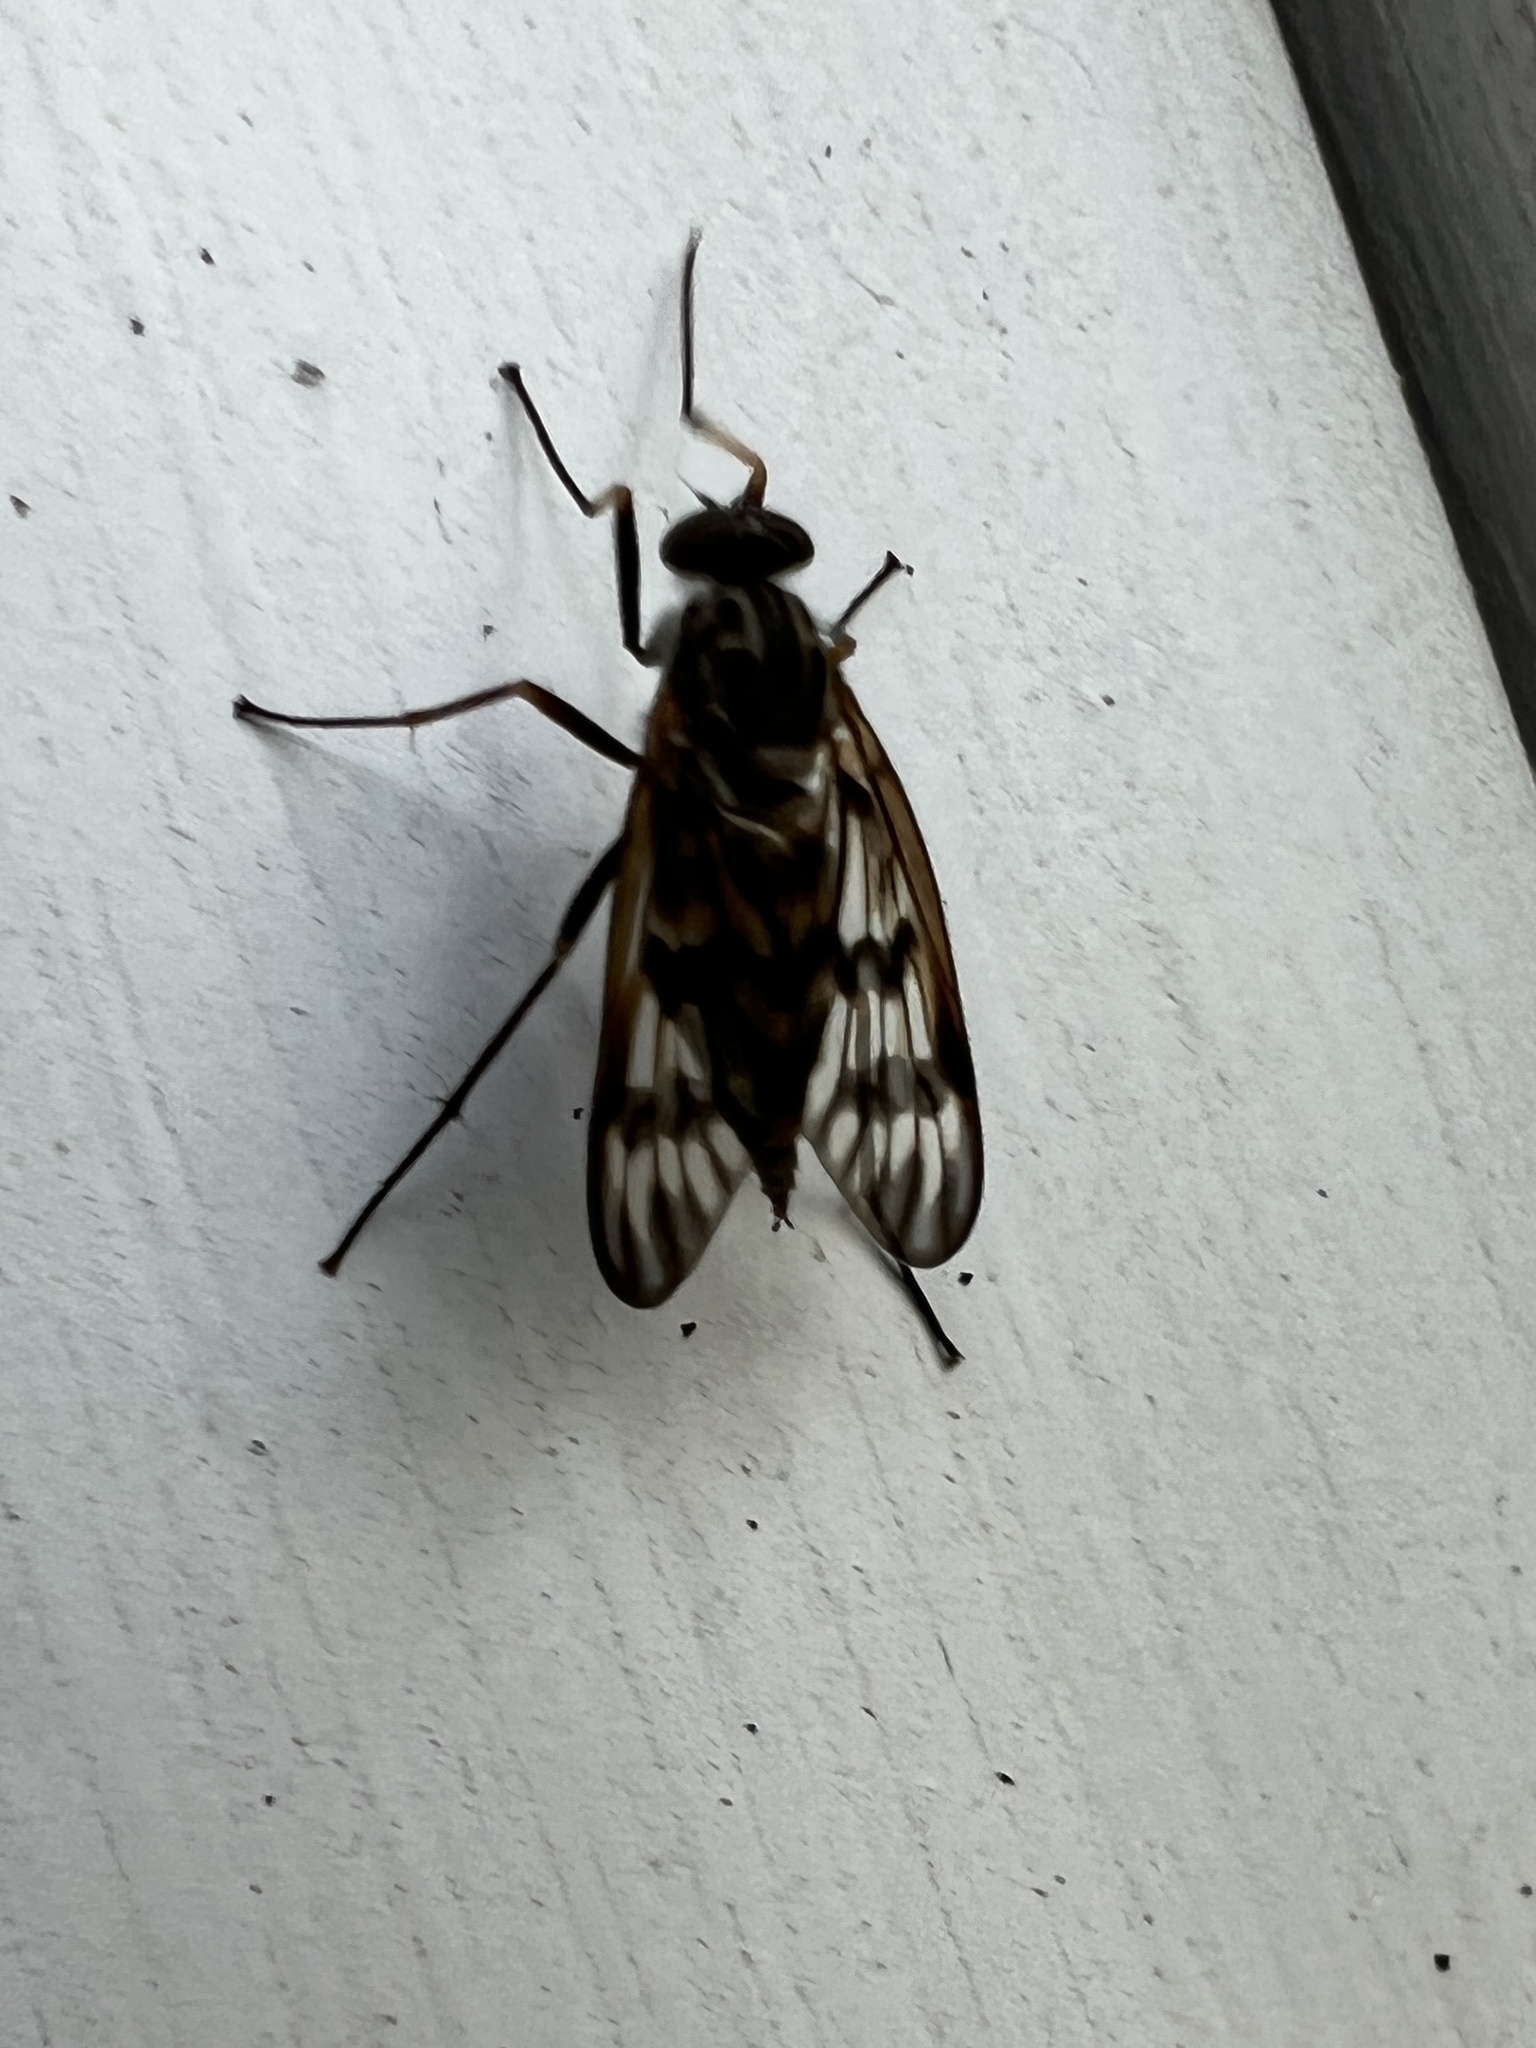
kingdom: Animalia
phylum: Arthropoda
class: Insecta
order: Diptera
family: Rhagionidae
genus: Rhagio
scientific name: Rhagio mystaceus
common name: Common snipe fly
